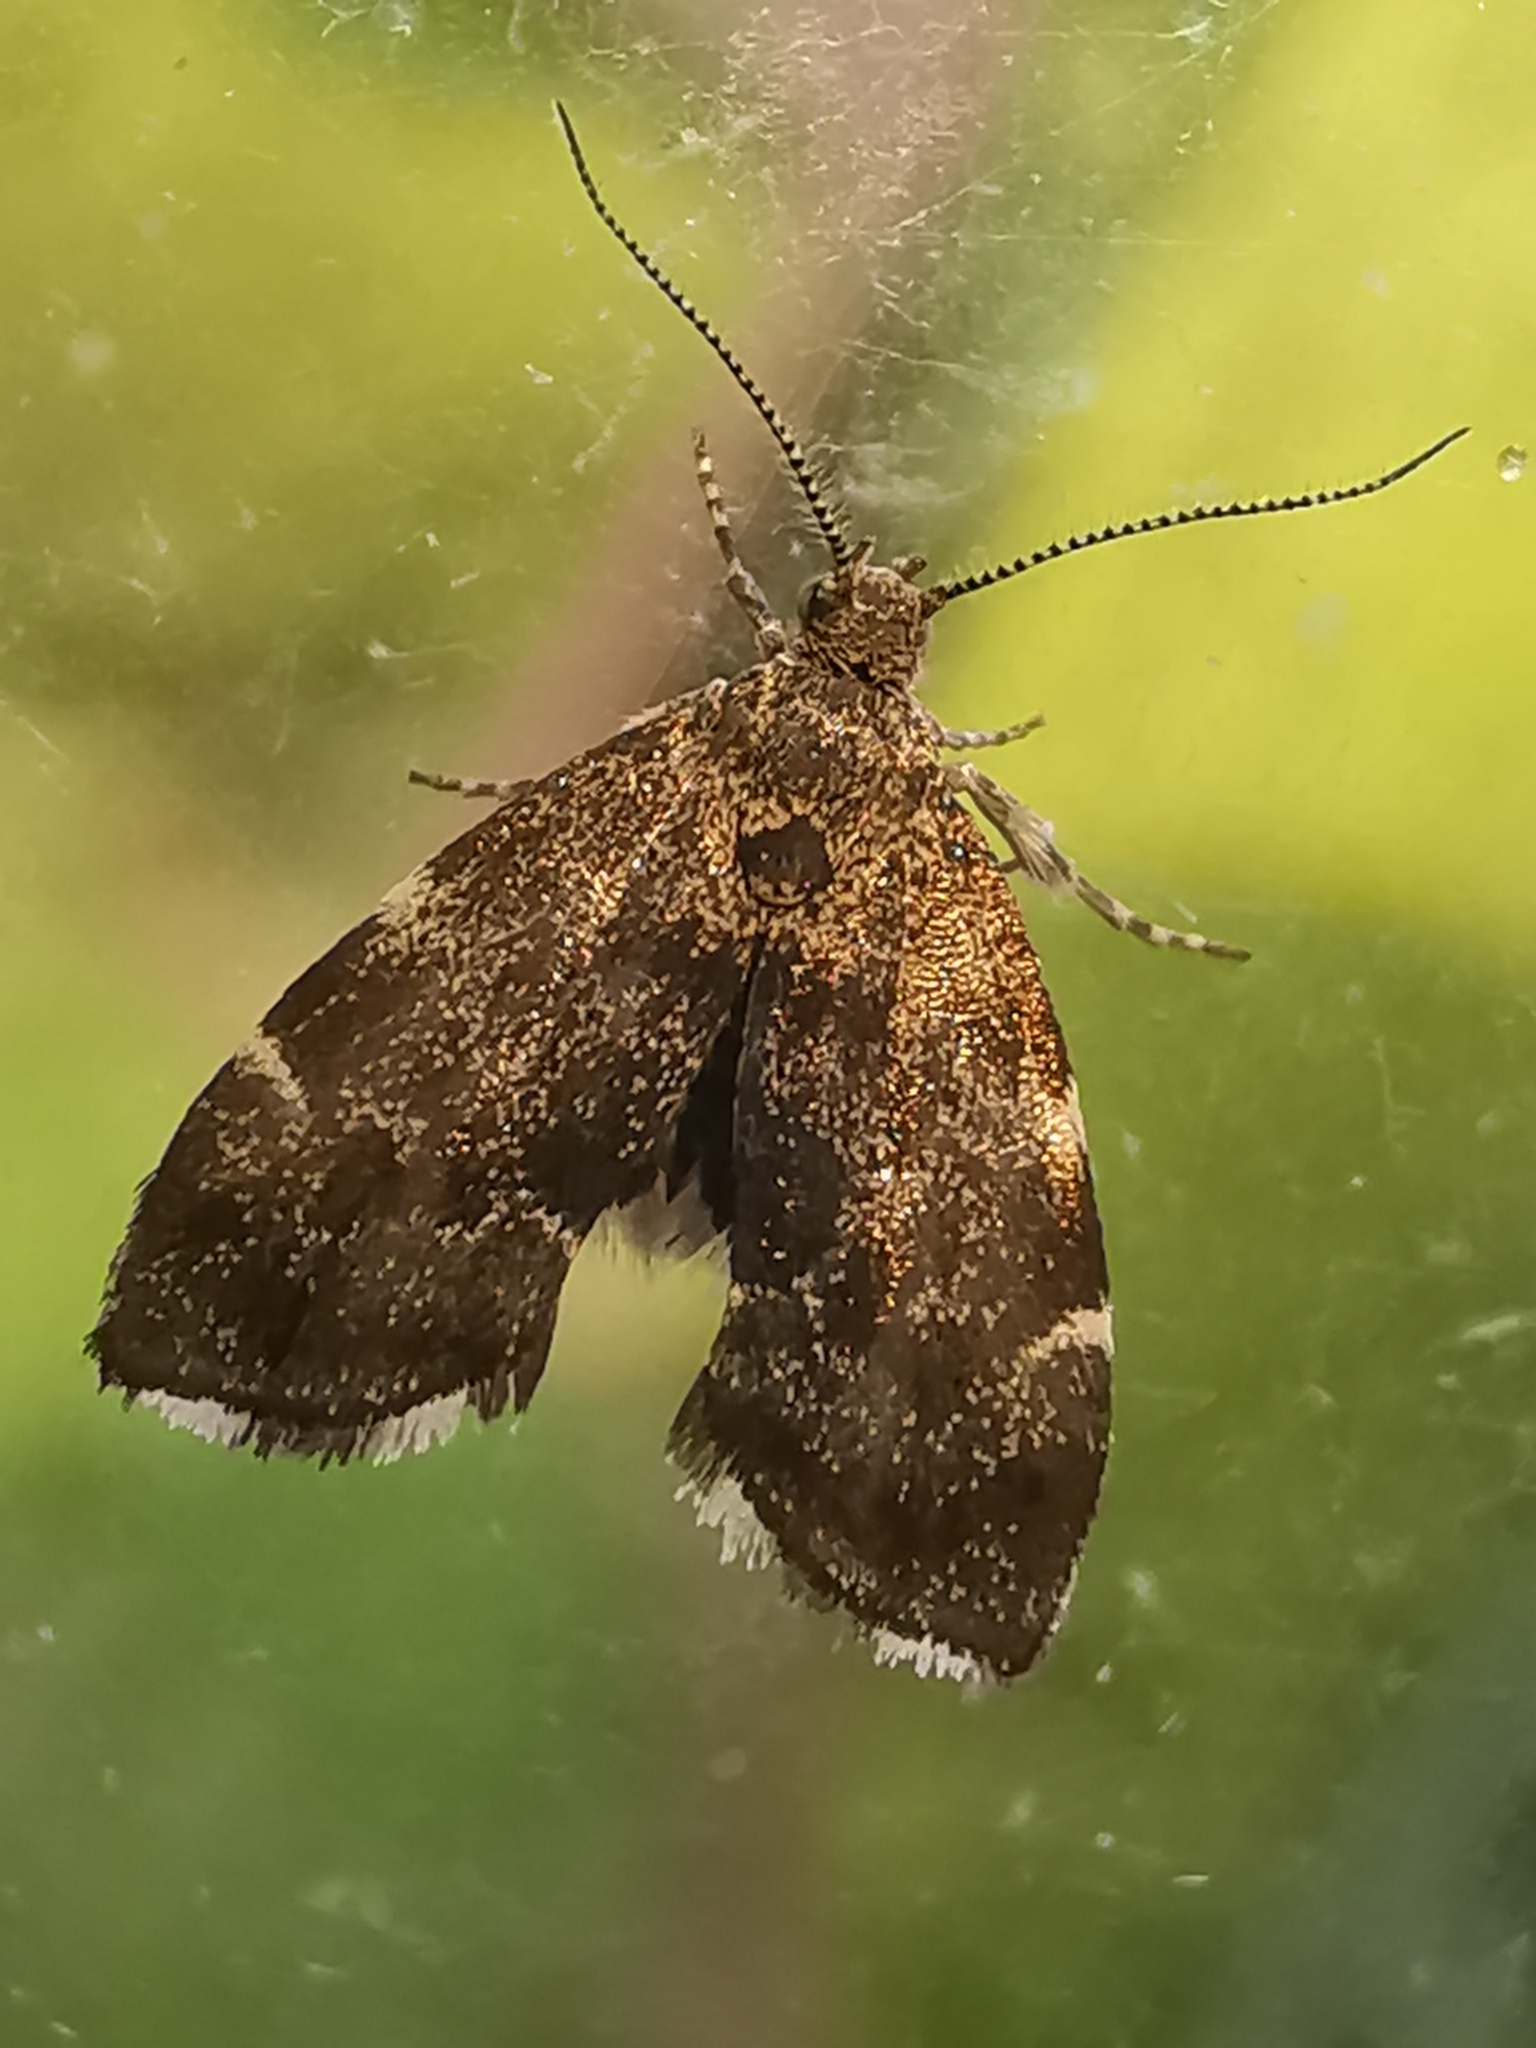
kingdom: Animalia
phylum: Arthropoda
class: Insecta
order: Lepidoptera
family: Choreutidae
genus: Anthophila
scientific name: Anthophila fabriciana
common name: Nettle-tap
